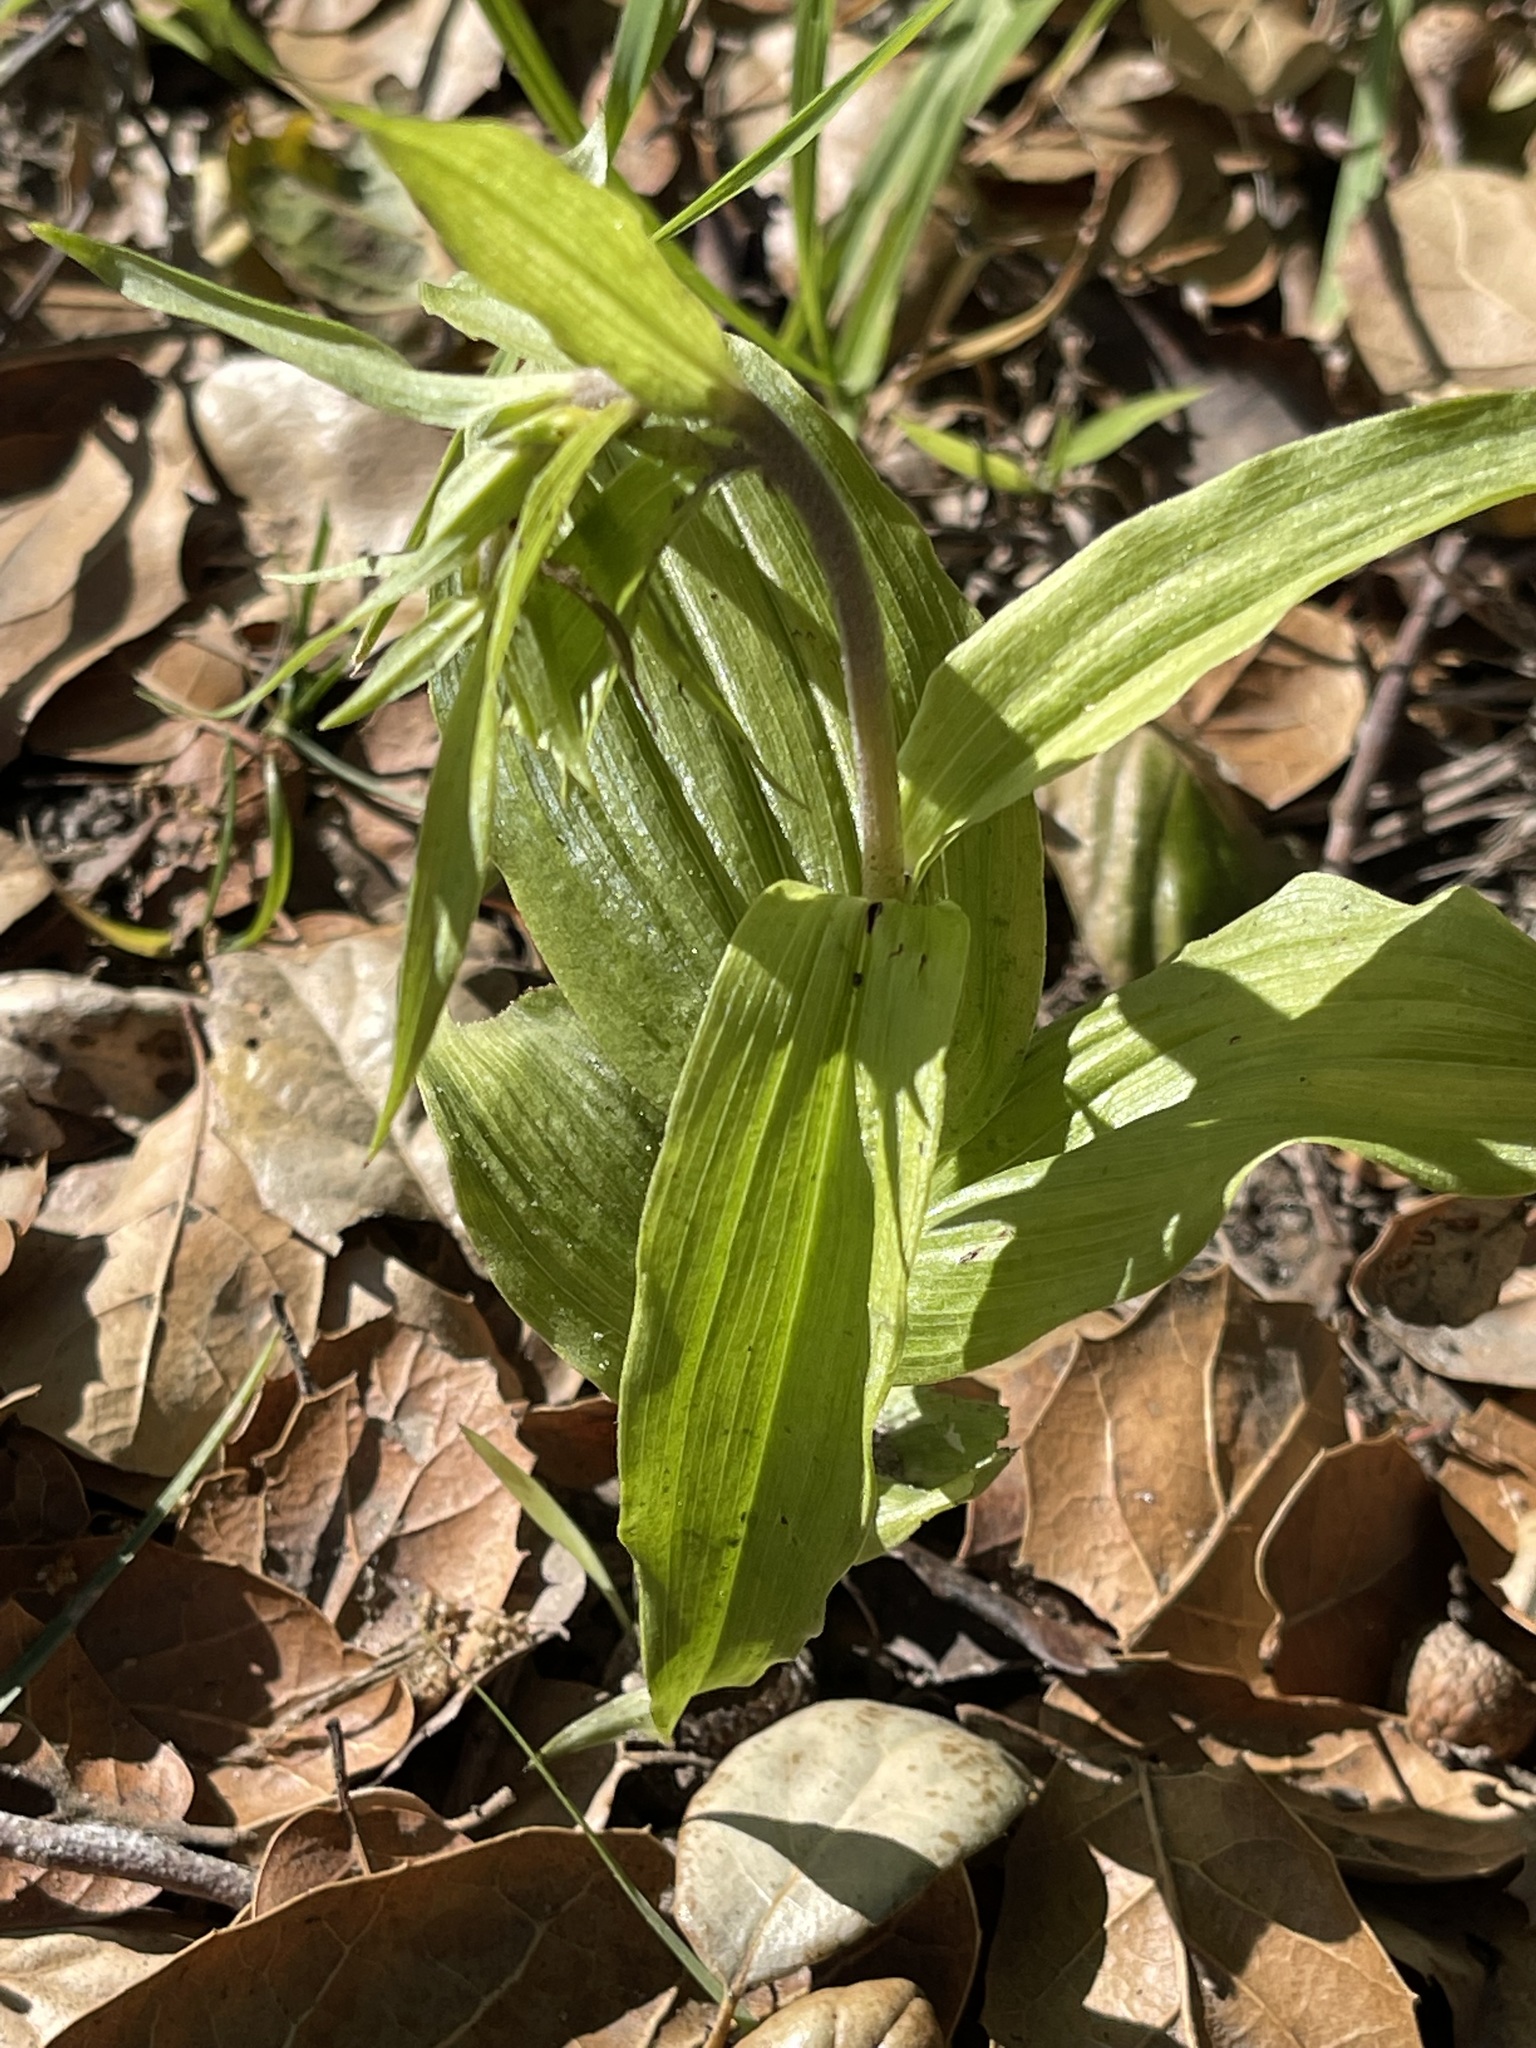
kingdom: Plantae
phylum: Tracheophyta
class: Liliopsida
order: Asparagales
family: Orchidaceae
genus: Epipactis
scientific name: Epipactis helleborine
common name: Broad-leaved helleborine
